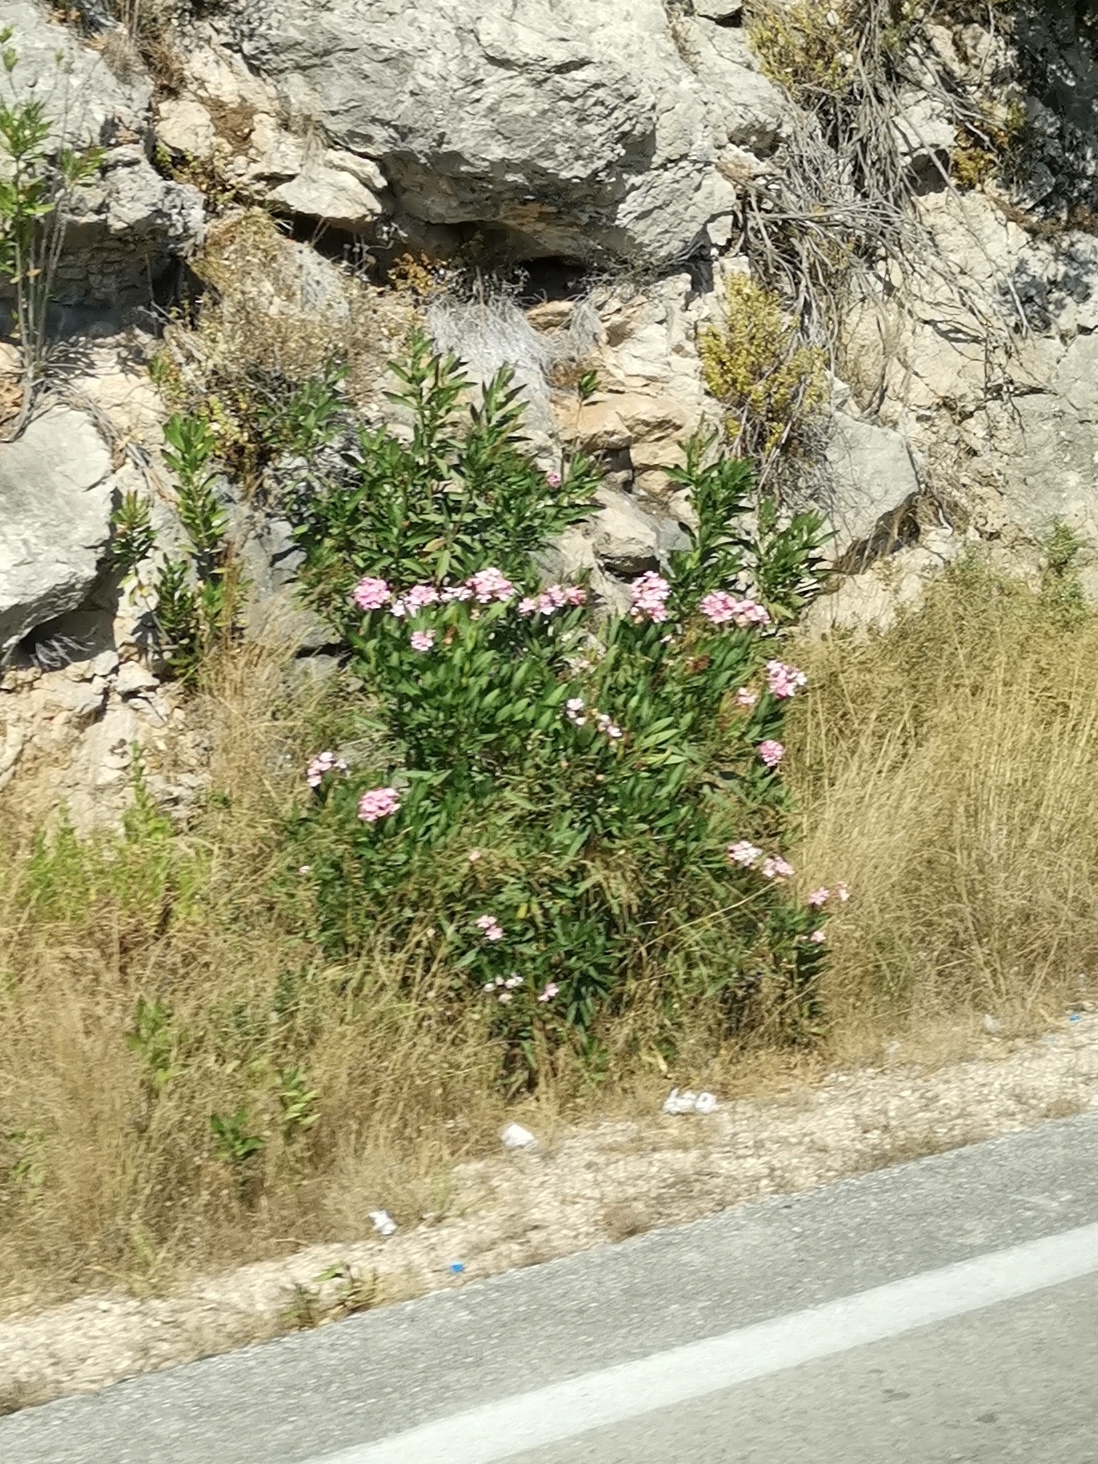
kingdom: Plantae
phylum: Tracheophyta
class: Magnoliopsida
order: Gentianales
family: Apocynaceae
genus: Nerium
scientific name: Nerium oleander
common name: Oleander
